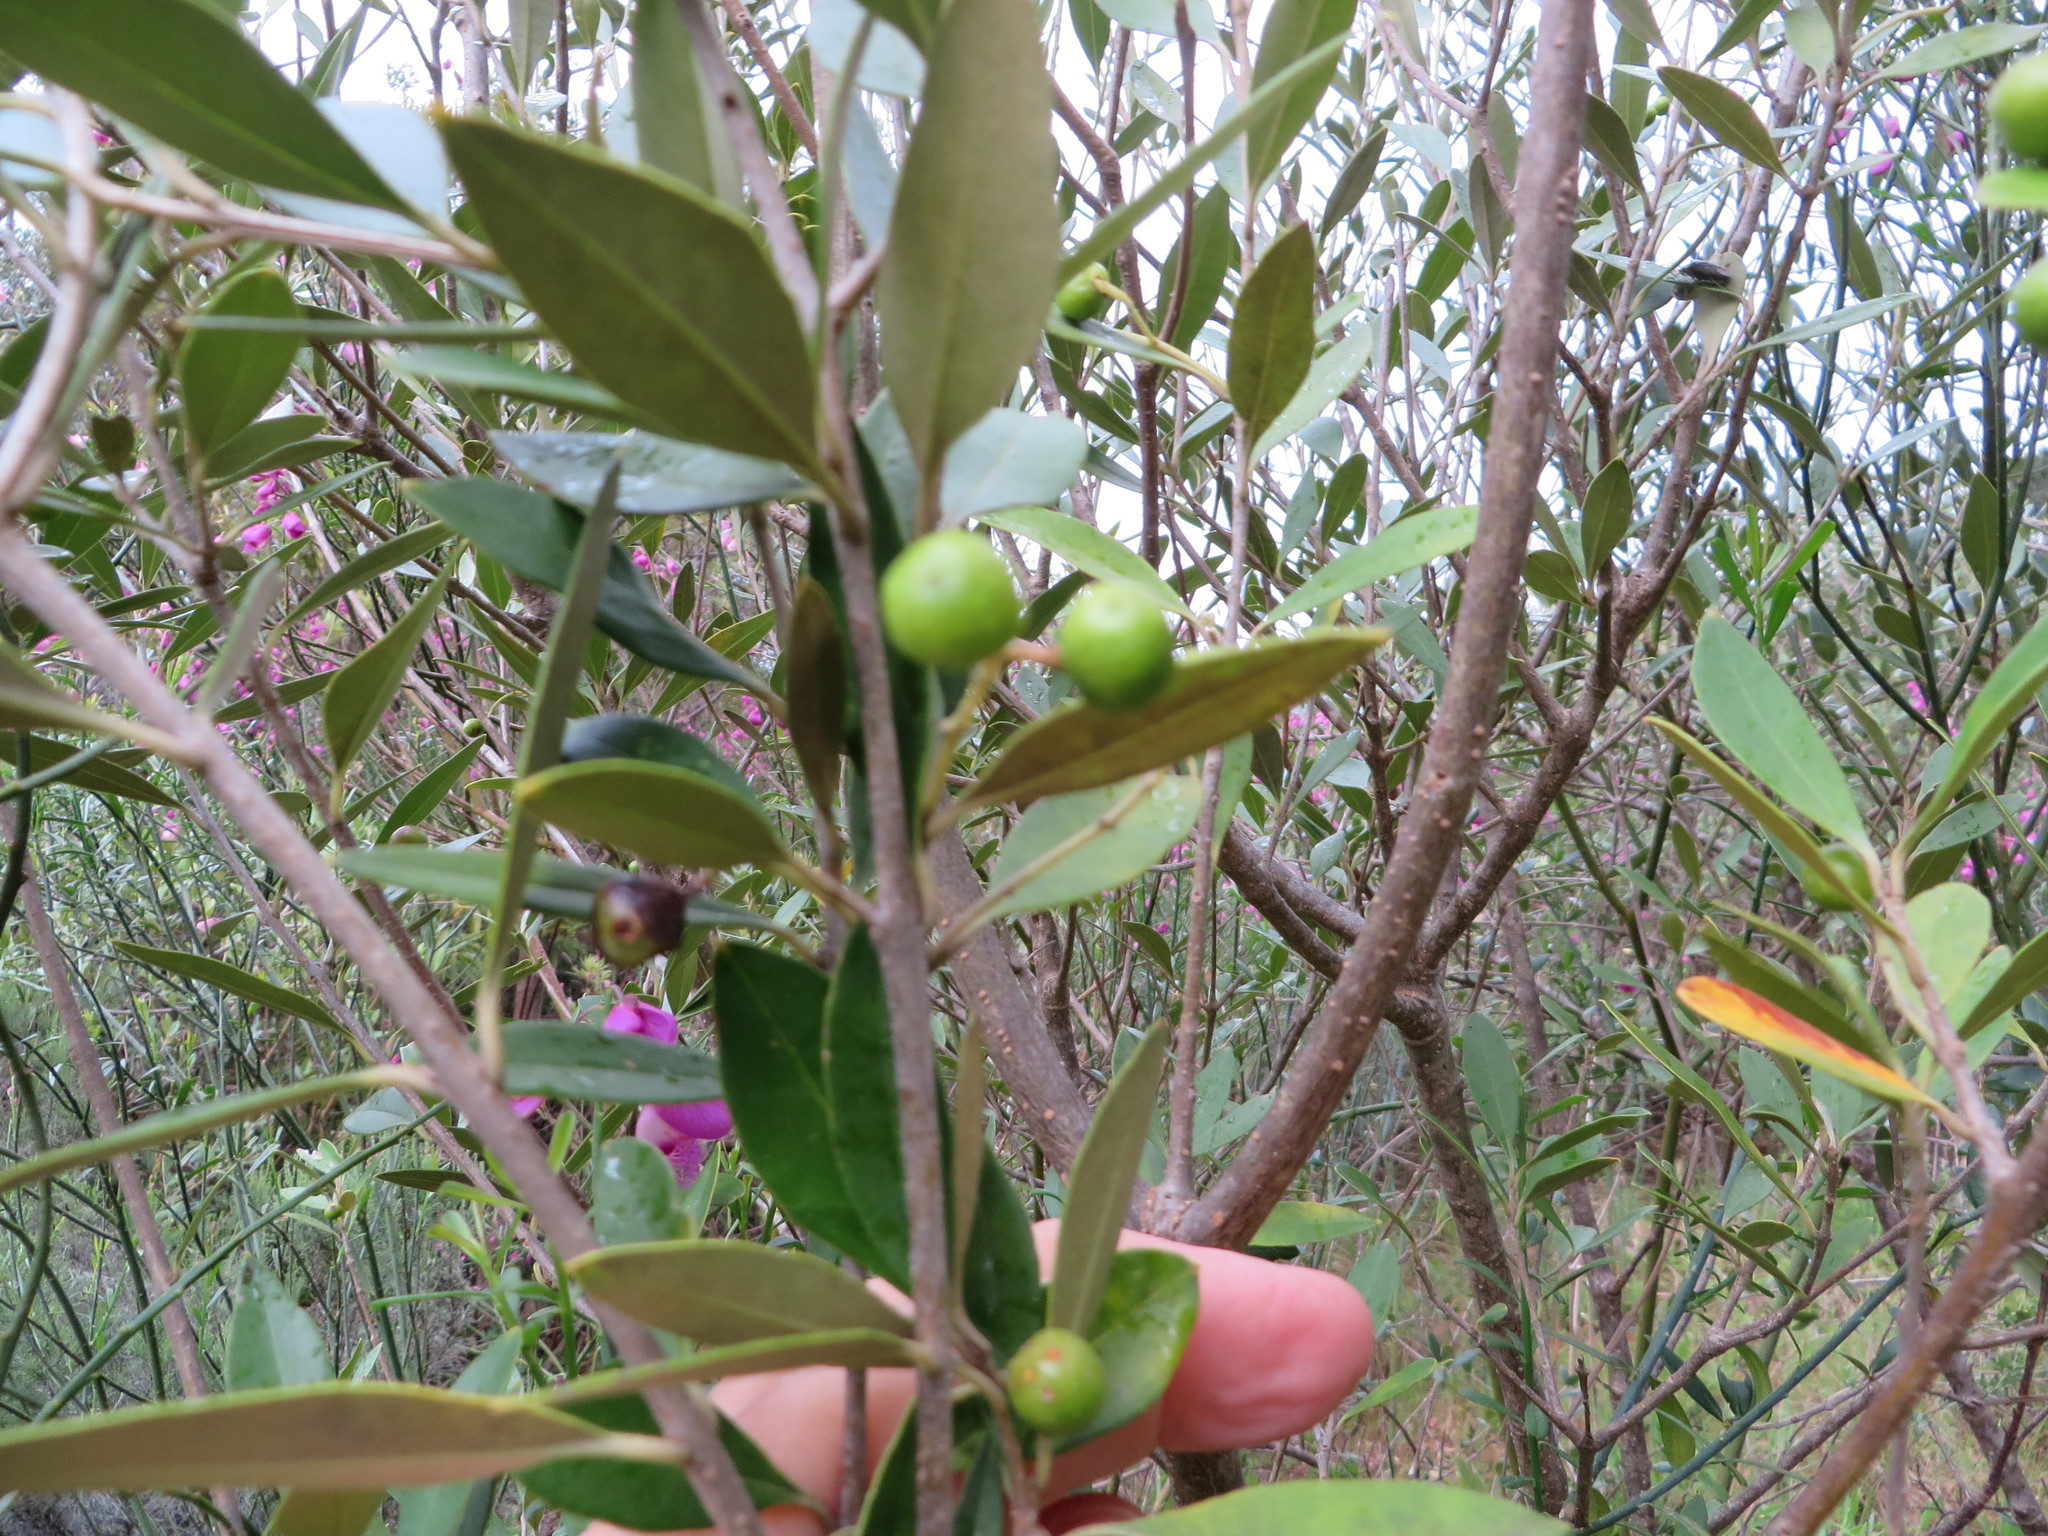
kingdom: Plantae
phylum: Tracheophyta
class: Magnoliopsida
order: Lamiales
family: Oleaceae
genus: Olea
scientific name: Olea europaea
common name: Olive
